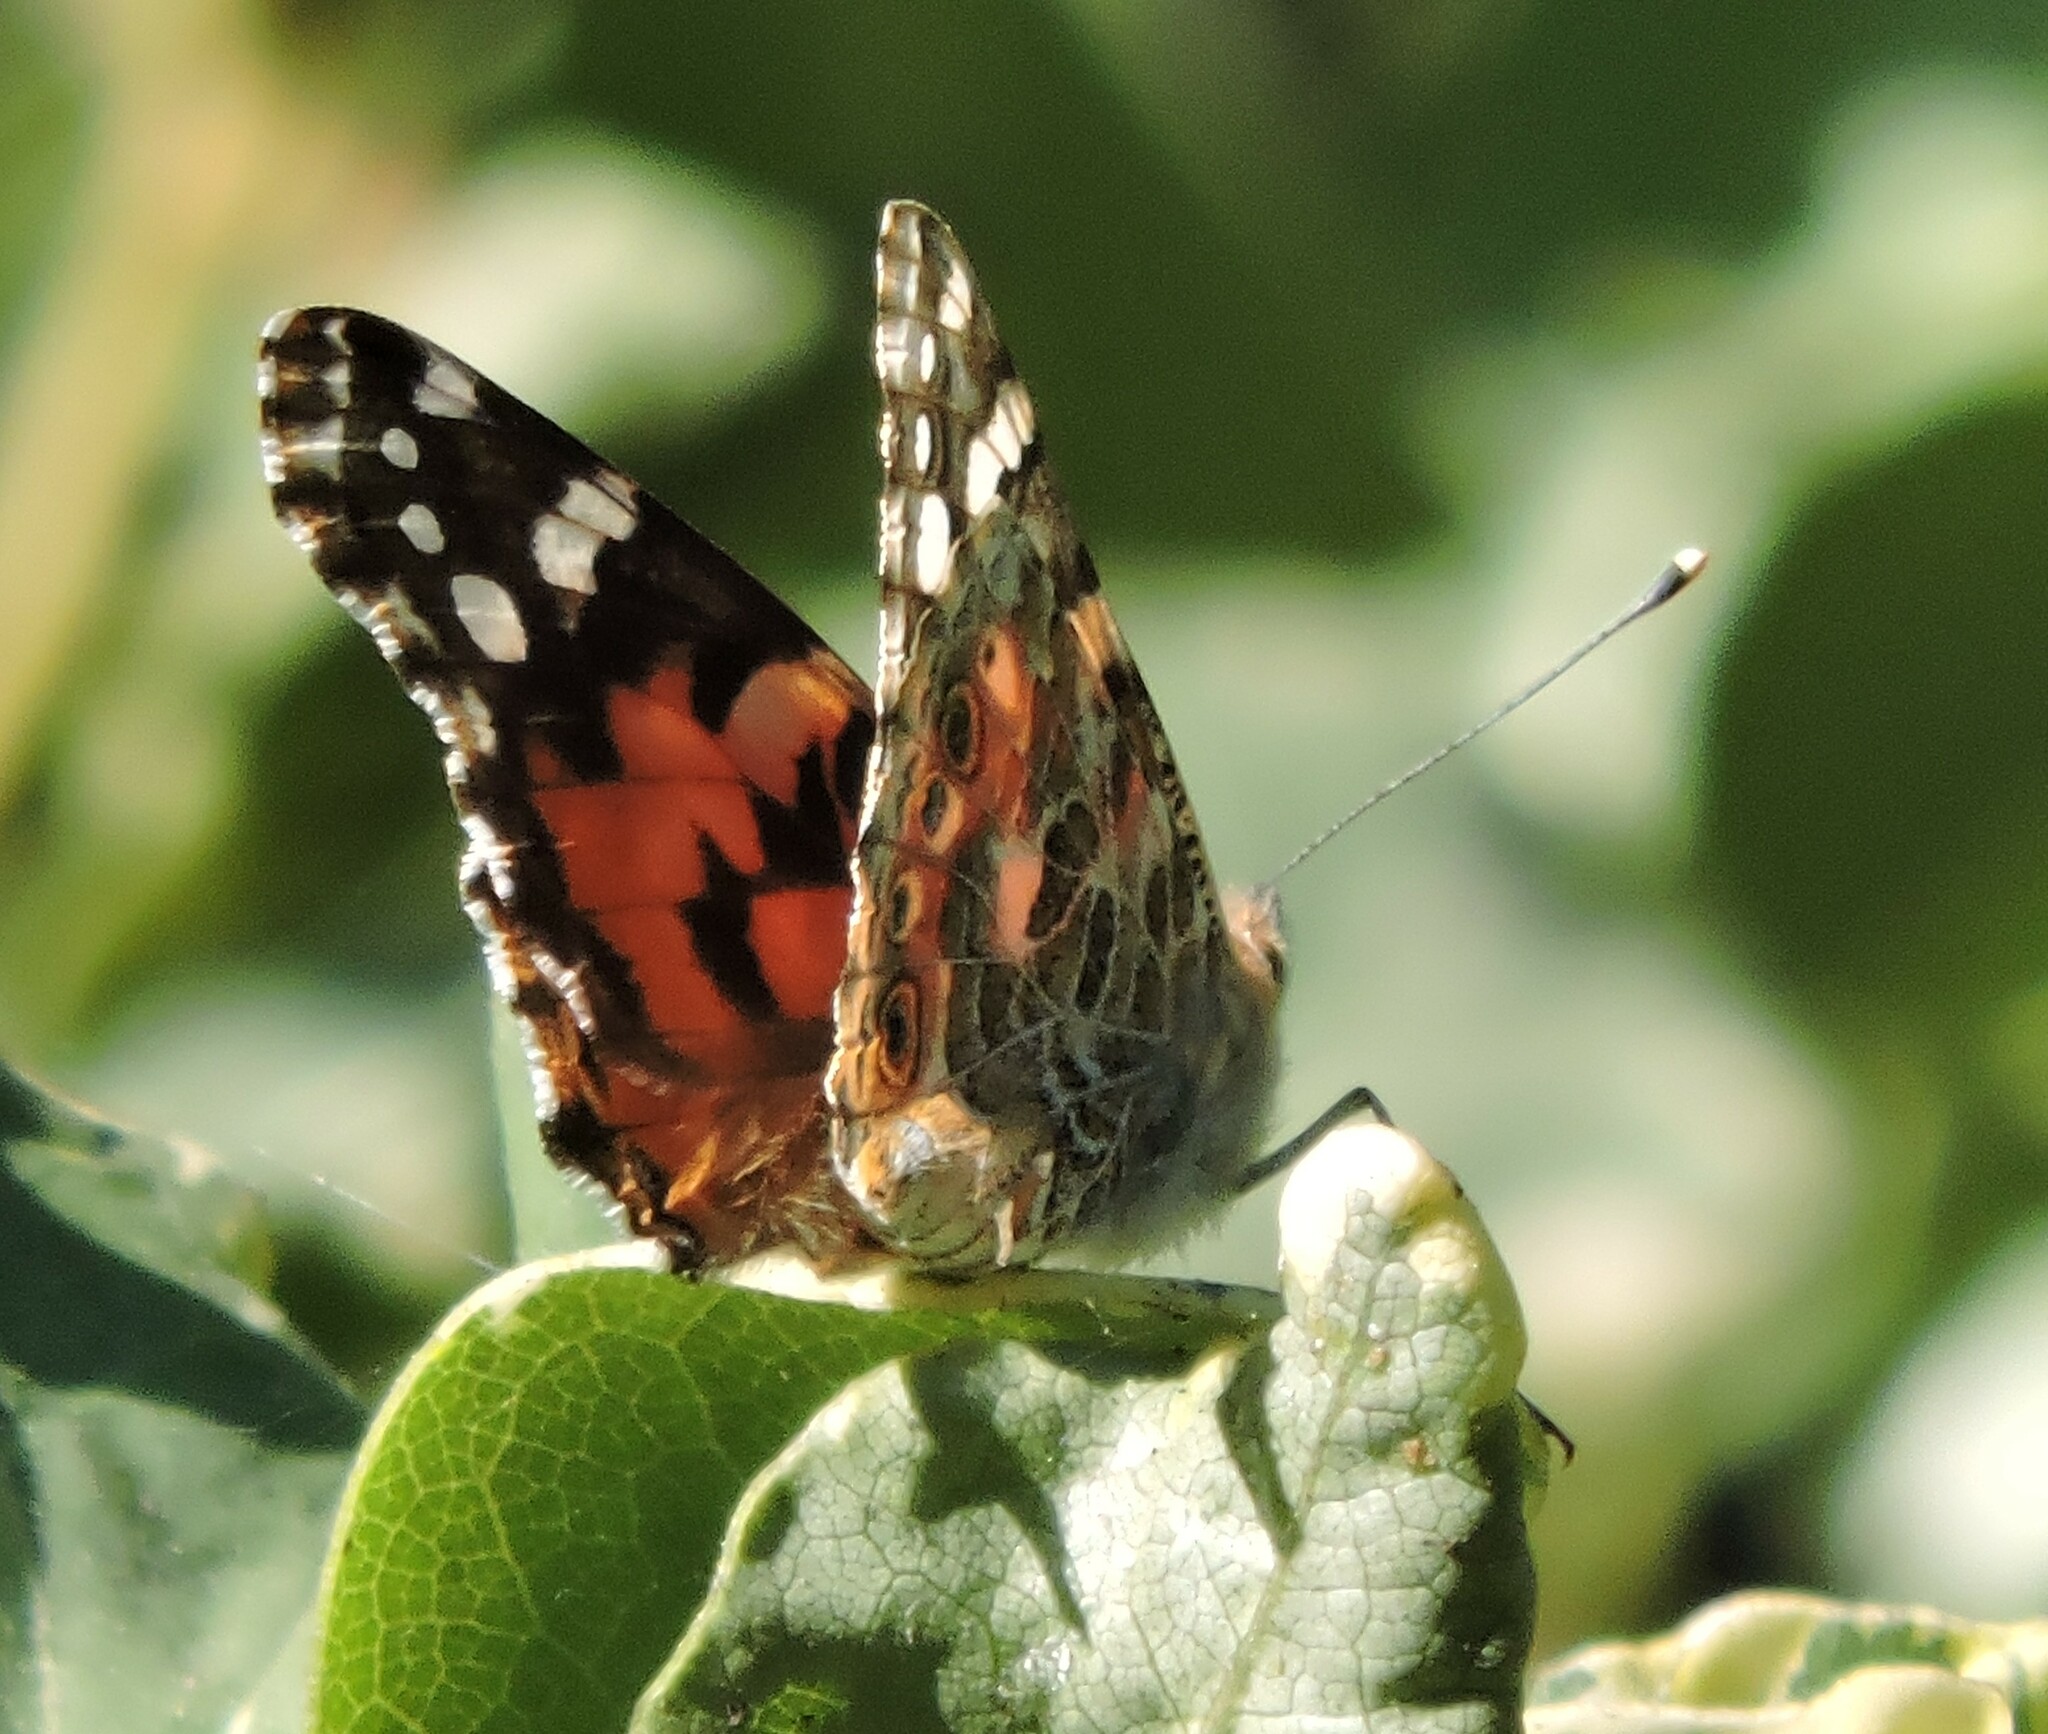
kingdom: Animalia
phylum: Arthropoda
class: Insecta
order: Lepidoptera
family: Nymphalidae
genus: Vanessa
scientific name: Vanessa cardui
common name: Painted lady
